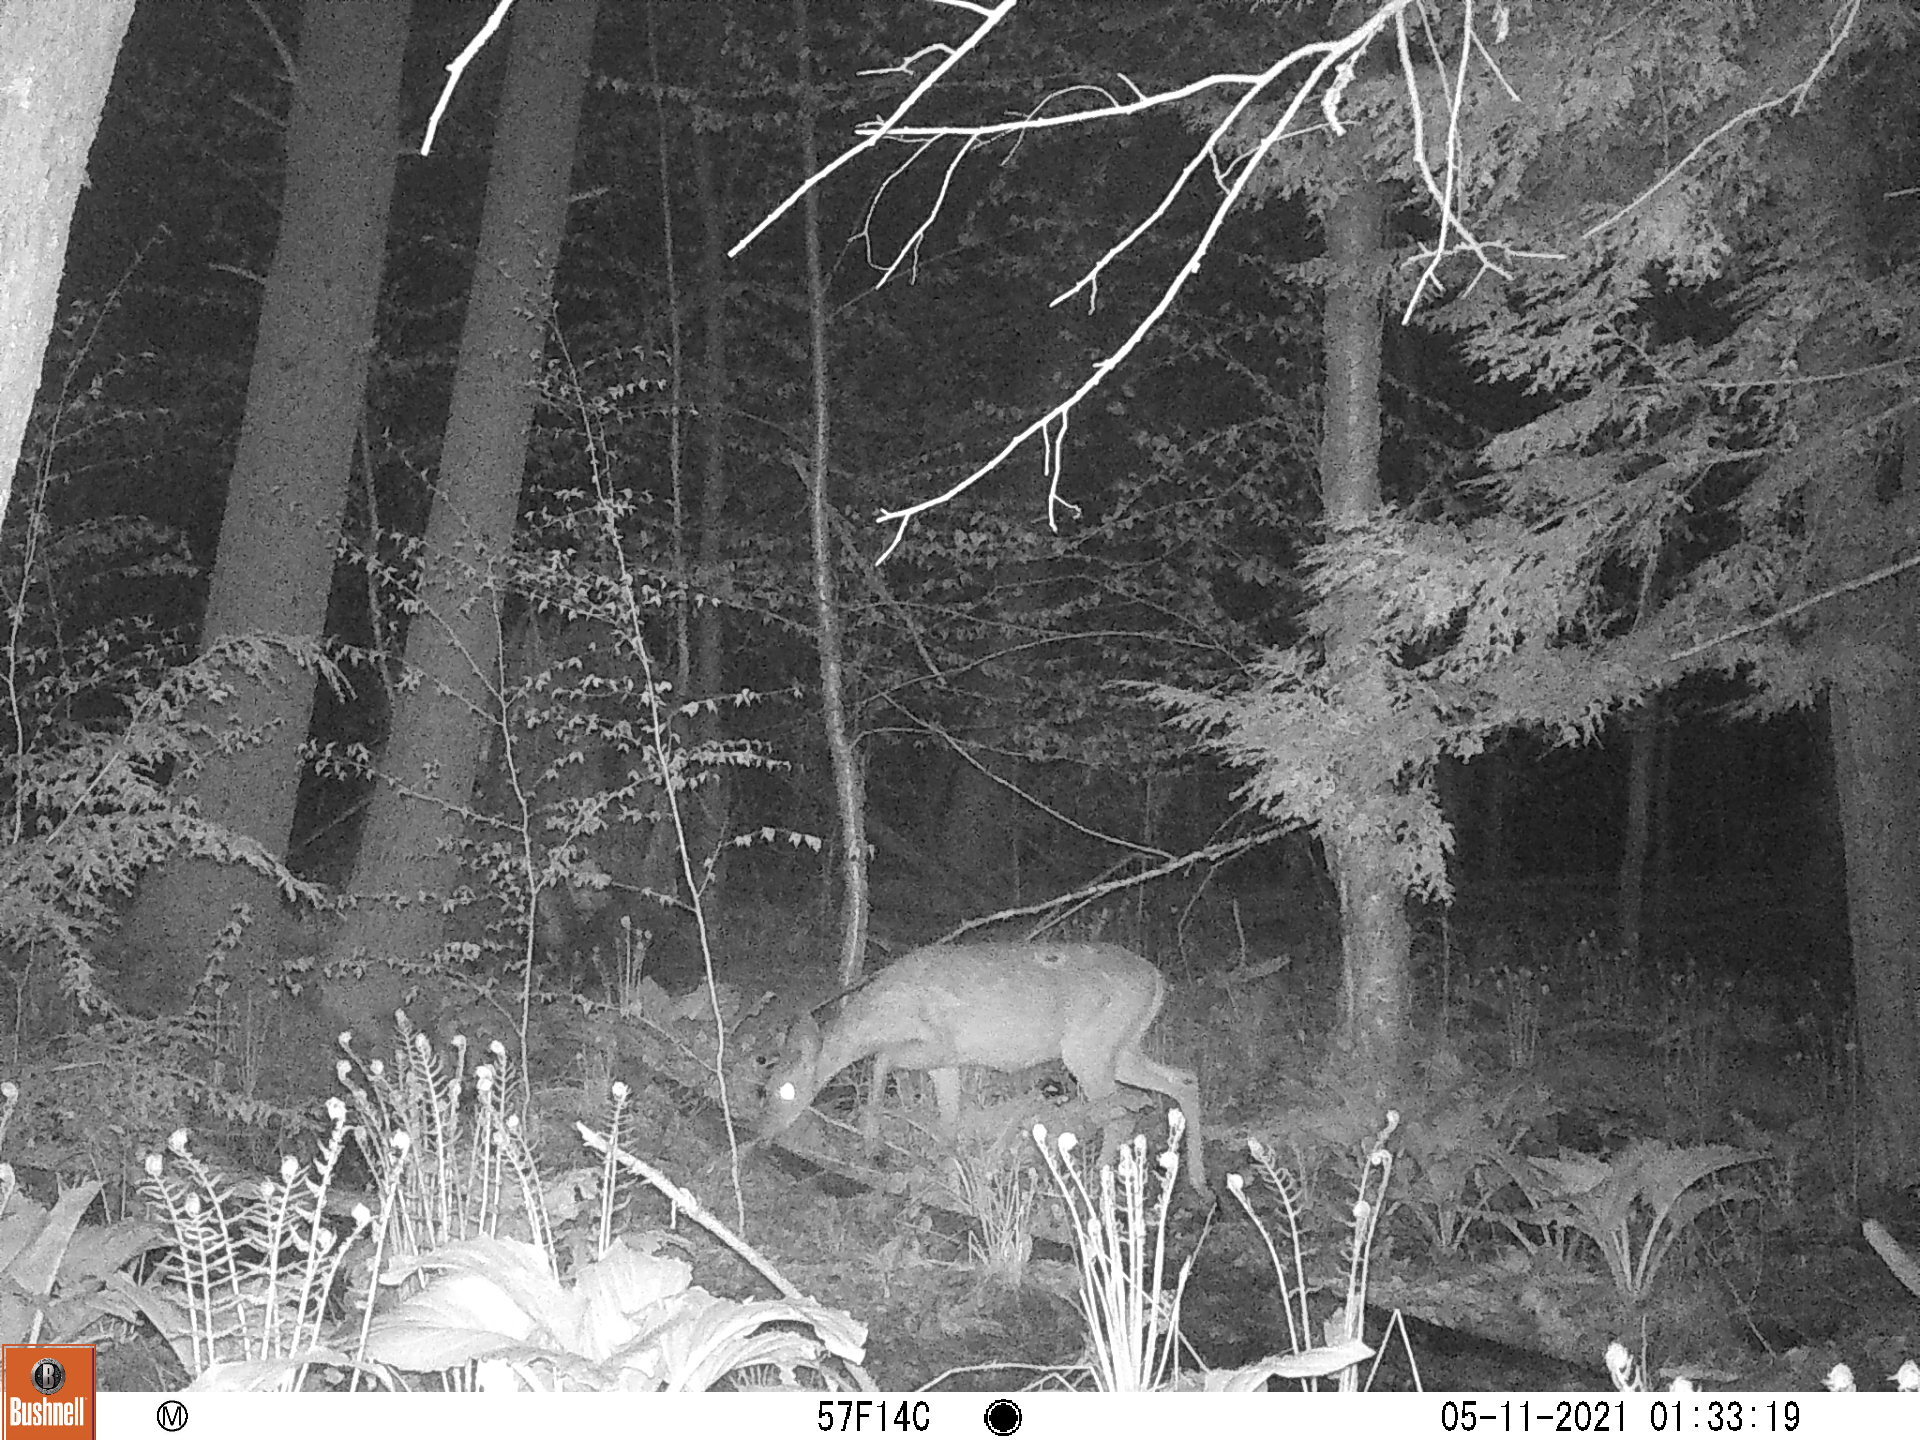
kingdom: Animalia
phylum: Chordata
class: Mammalia
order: Artiodactyla
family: Cervidae
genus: Odocoileus
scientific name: Odocoileus virginianus
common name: White-tailed deer
